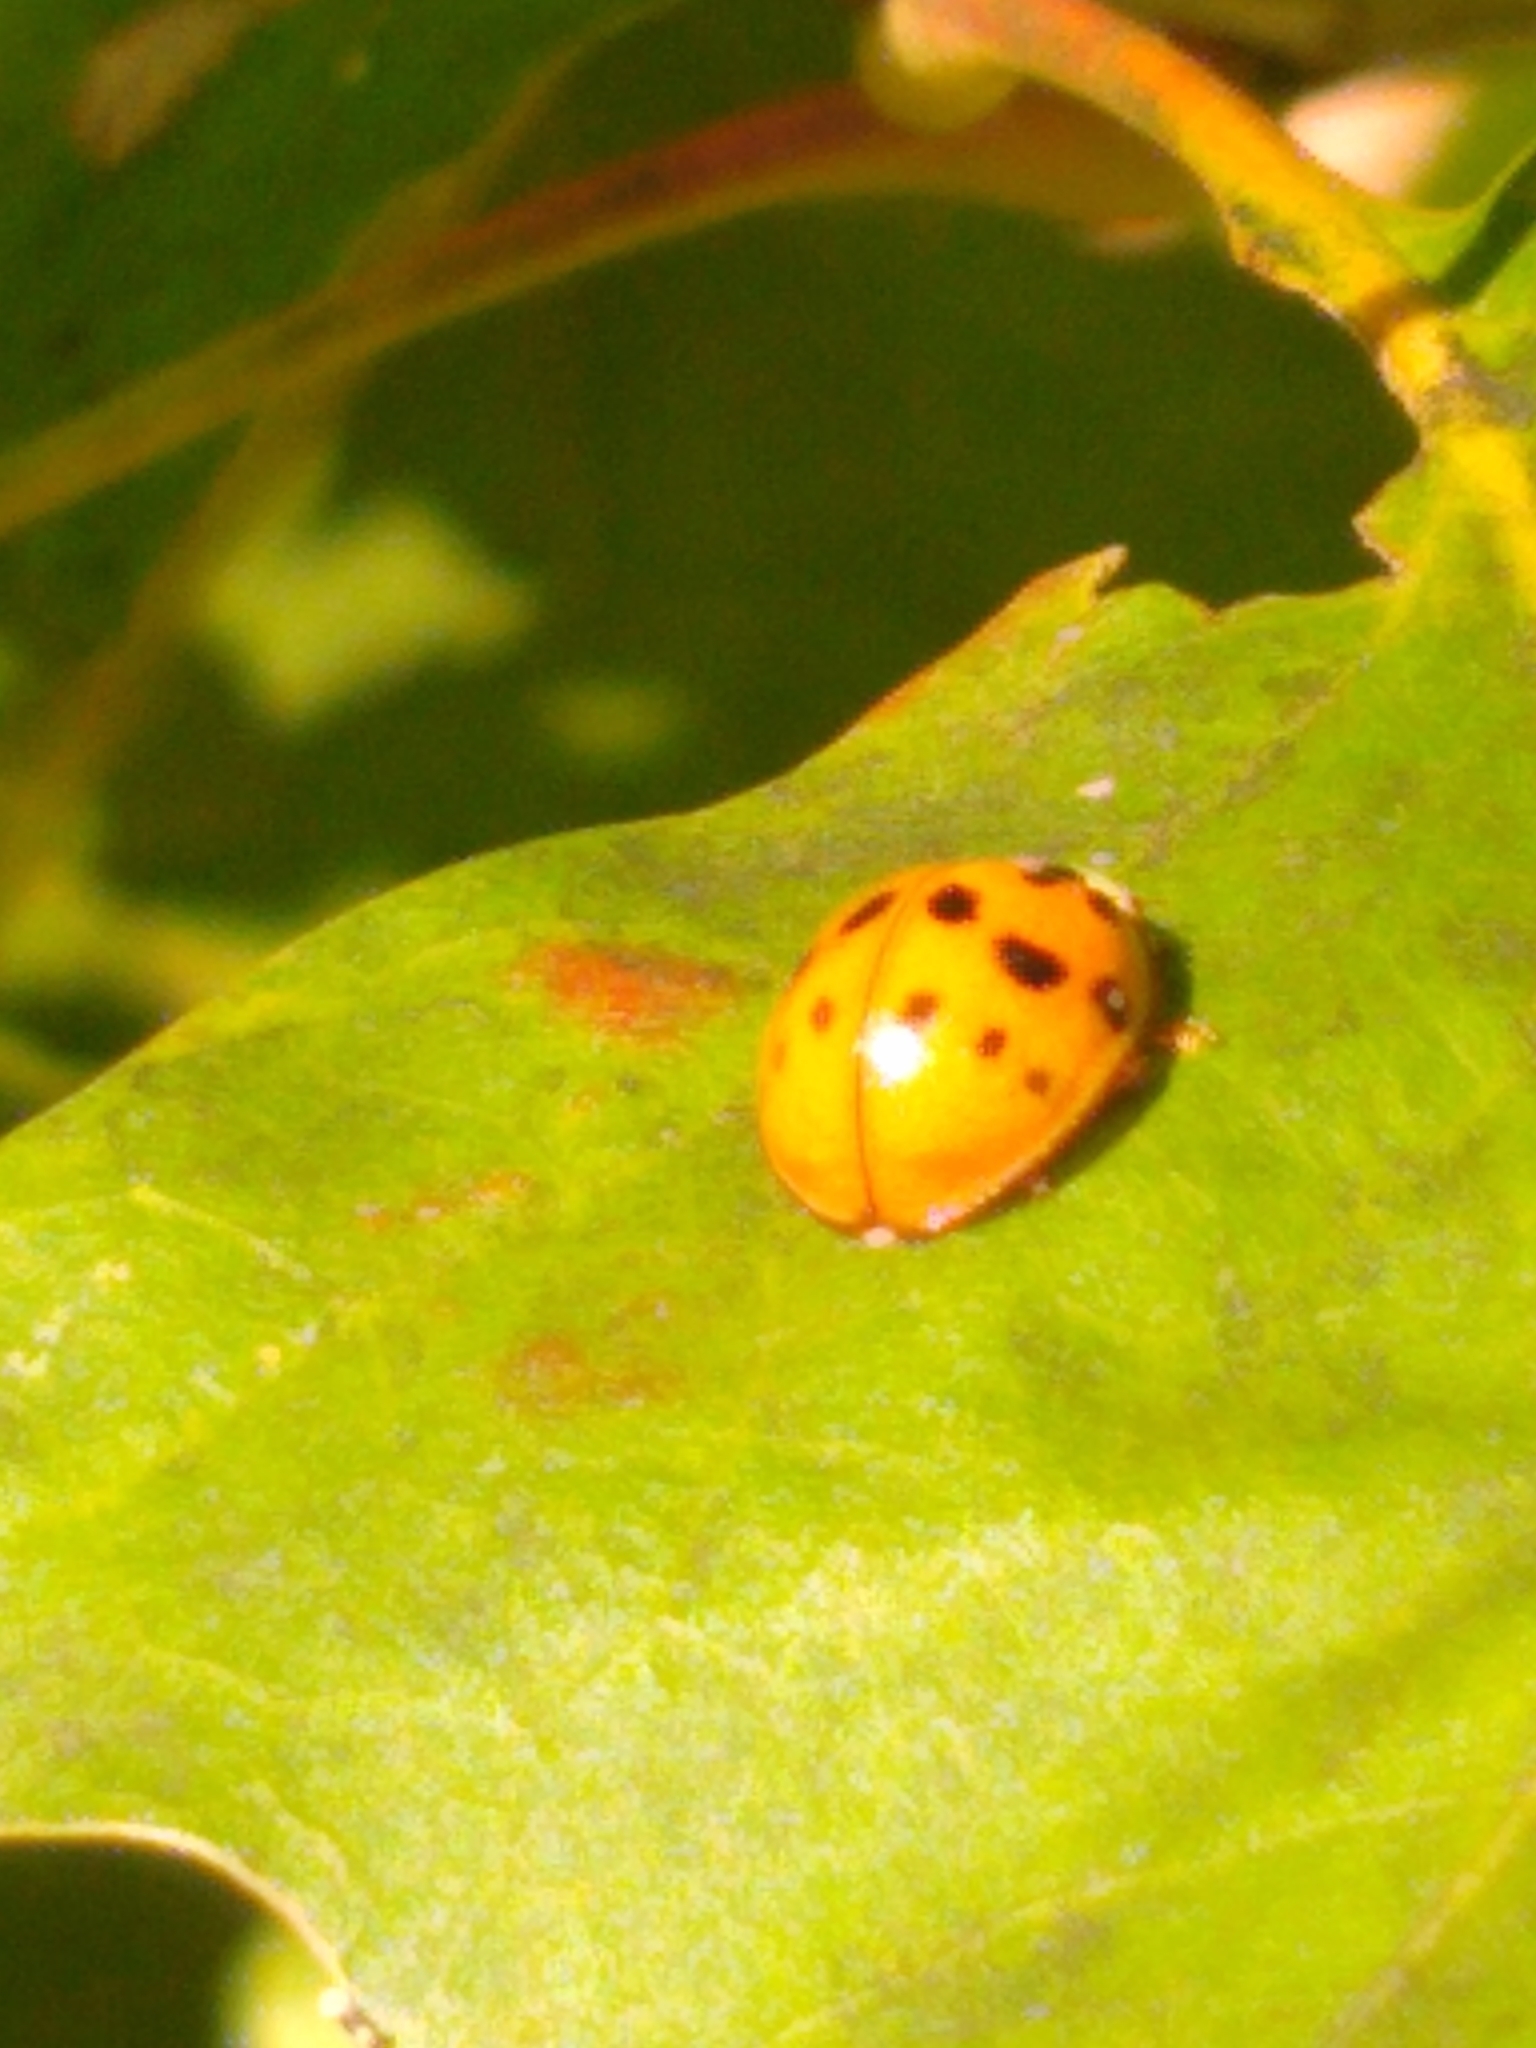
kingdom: Animalia
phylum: Arthropoda
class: Insecta
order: Coleoptera
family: Coccinellidae
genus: Harmonia
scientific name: Harmonia axyridis
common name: Harlequin ladybird
